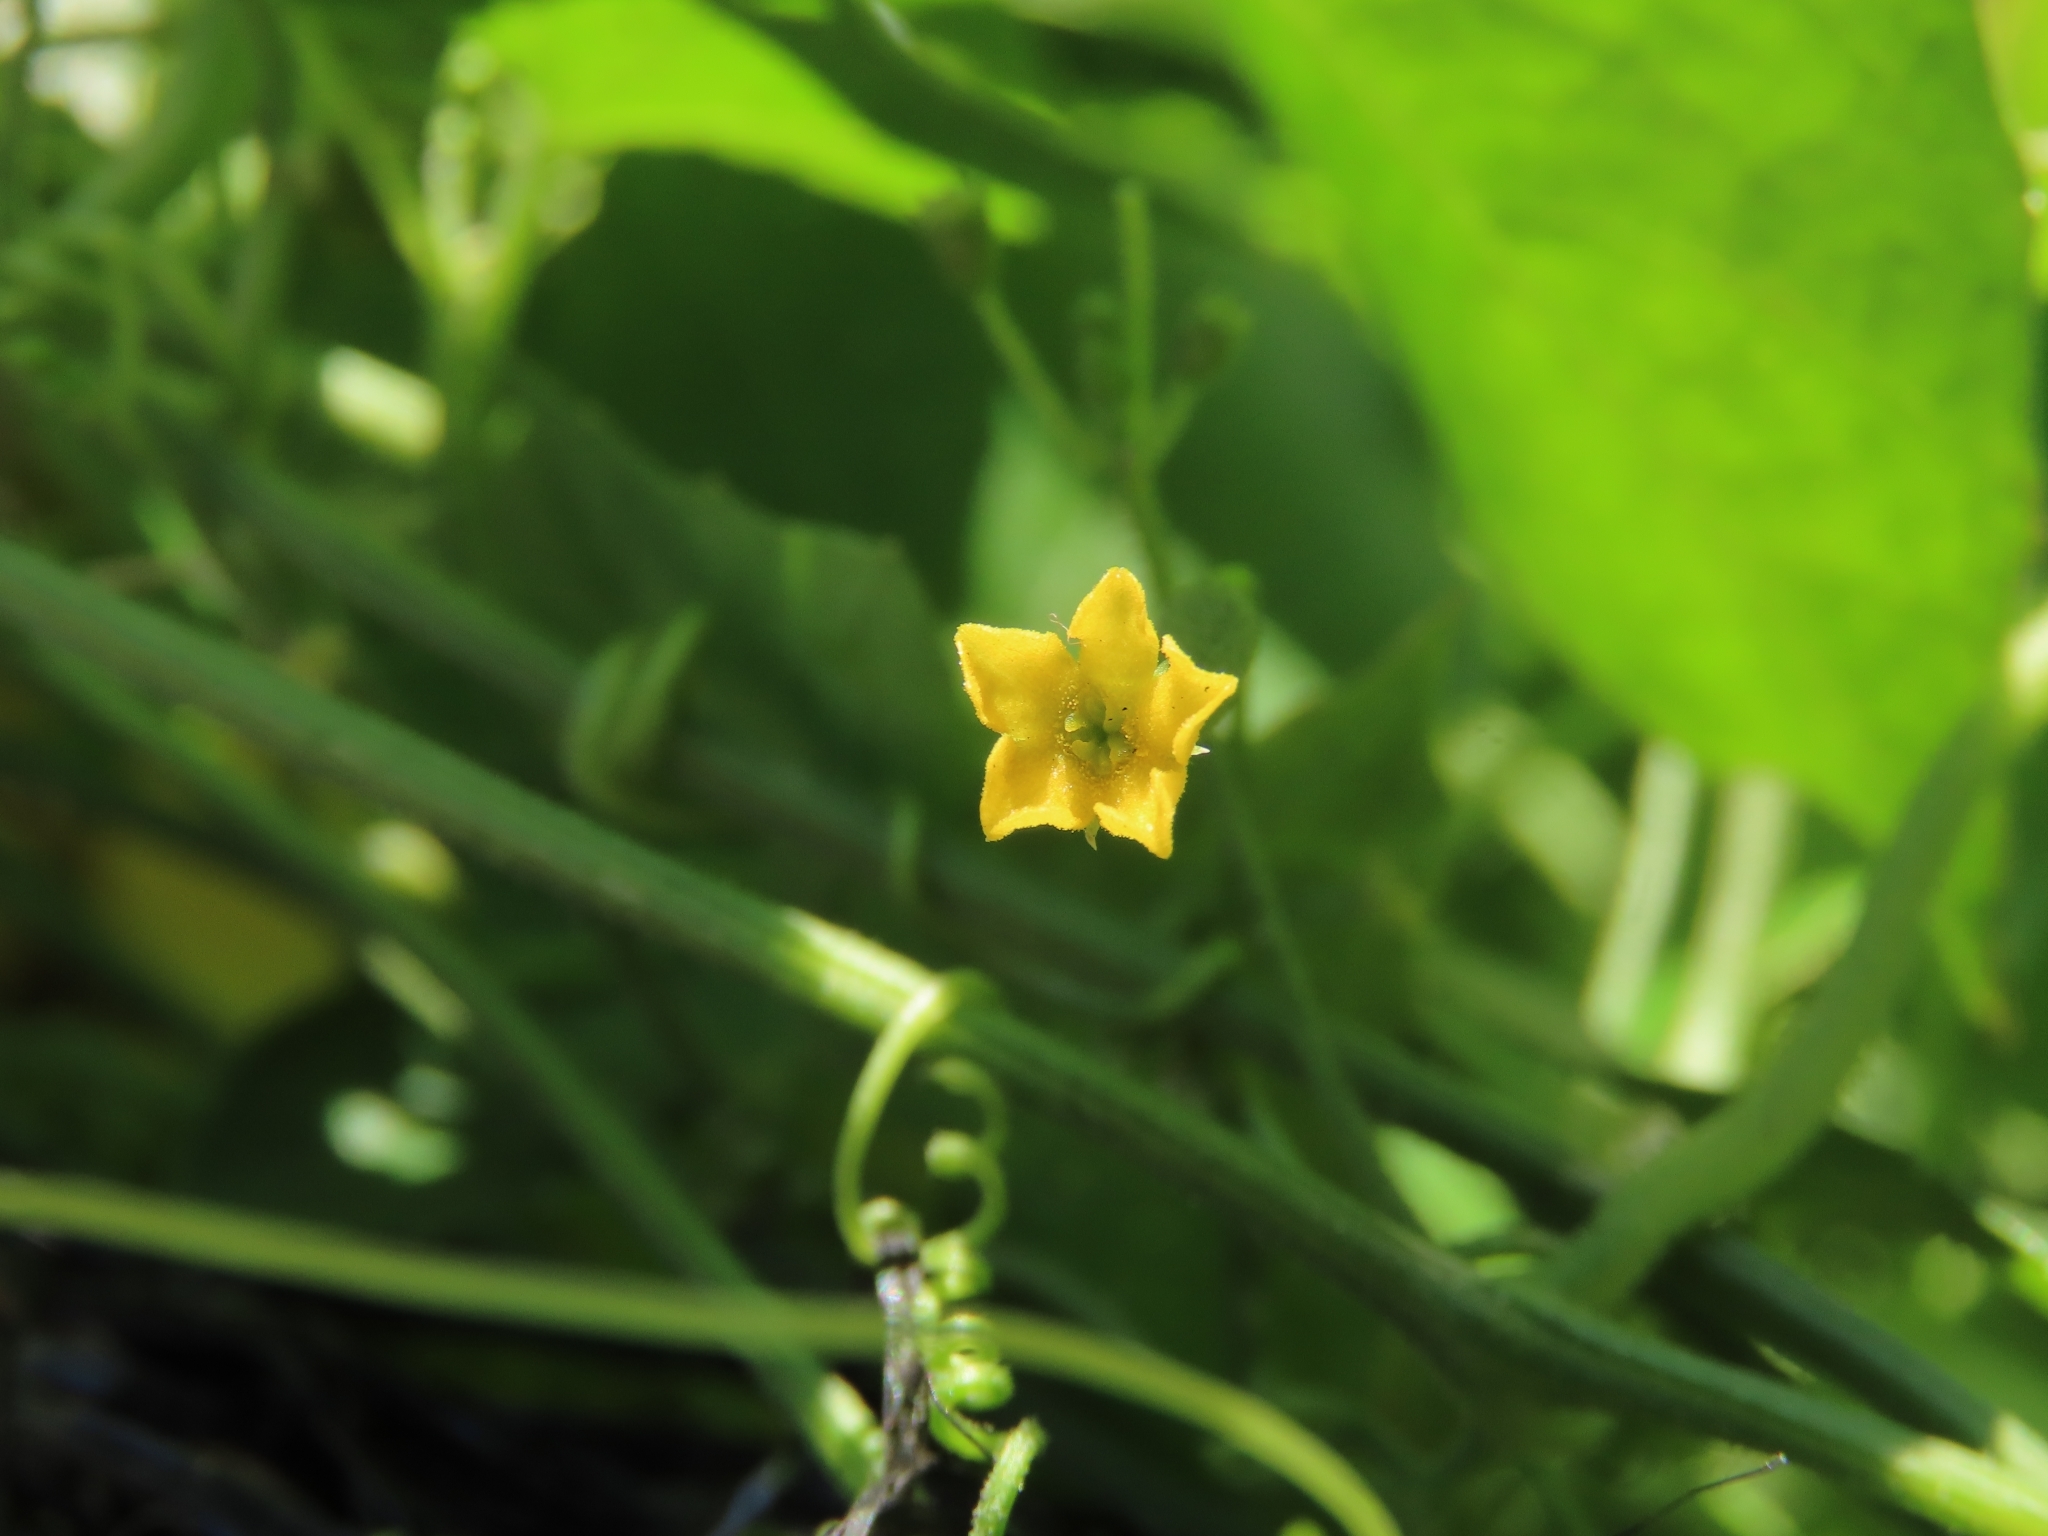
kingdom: Plantae
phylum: Tracheophyta
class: Magnoliopsida
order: Cucurbitales
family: Cucurbitaceae
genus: Melothria
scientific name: Melothria pendula
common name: Creeping-cucumber
